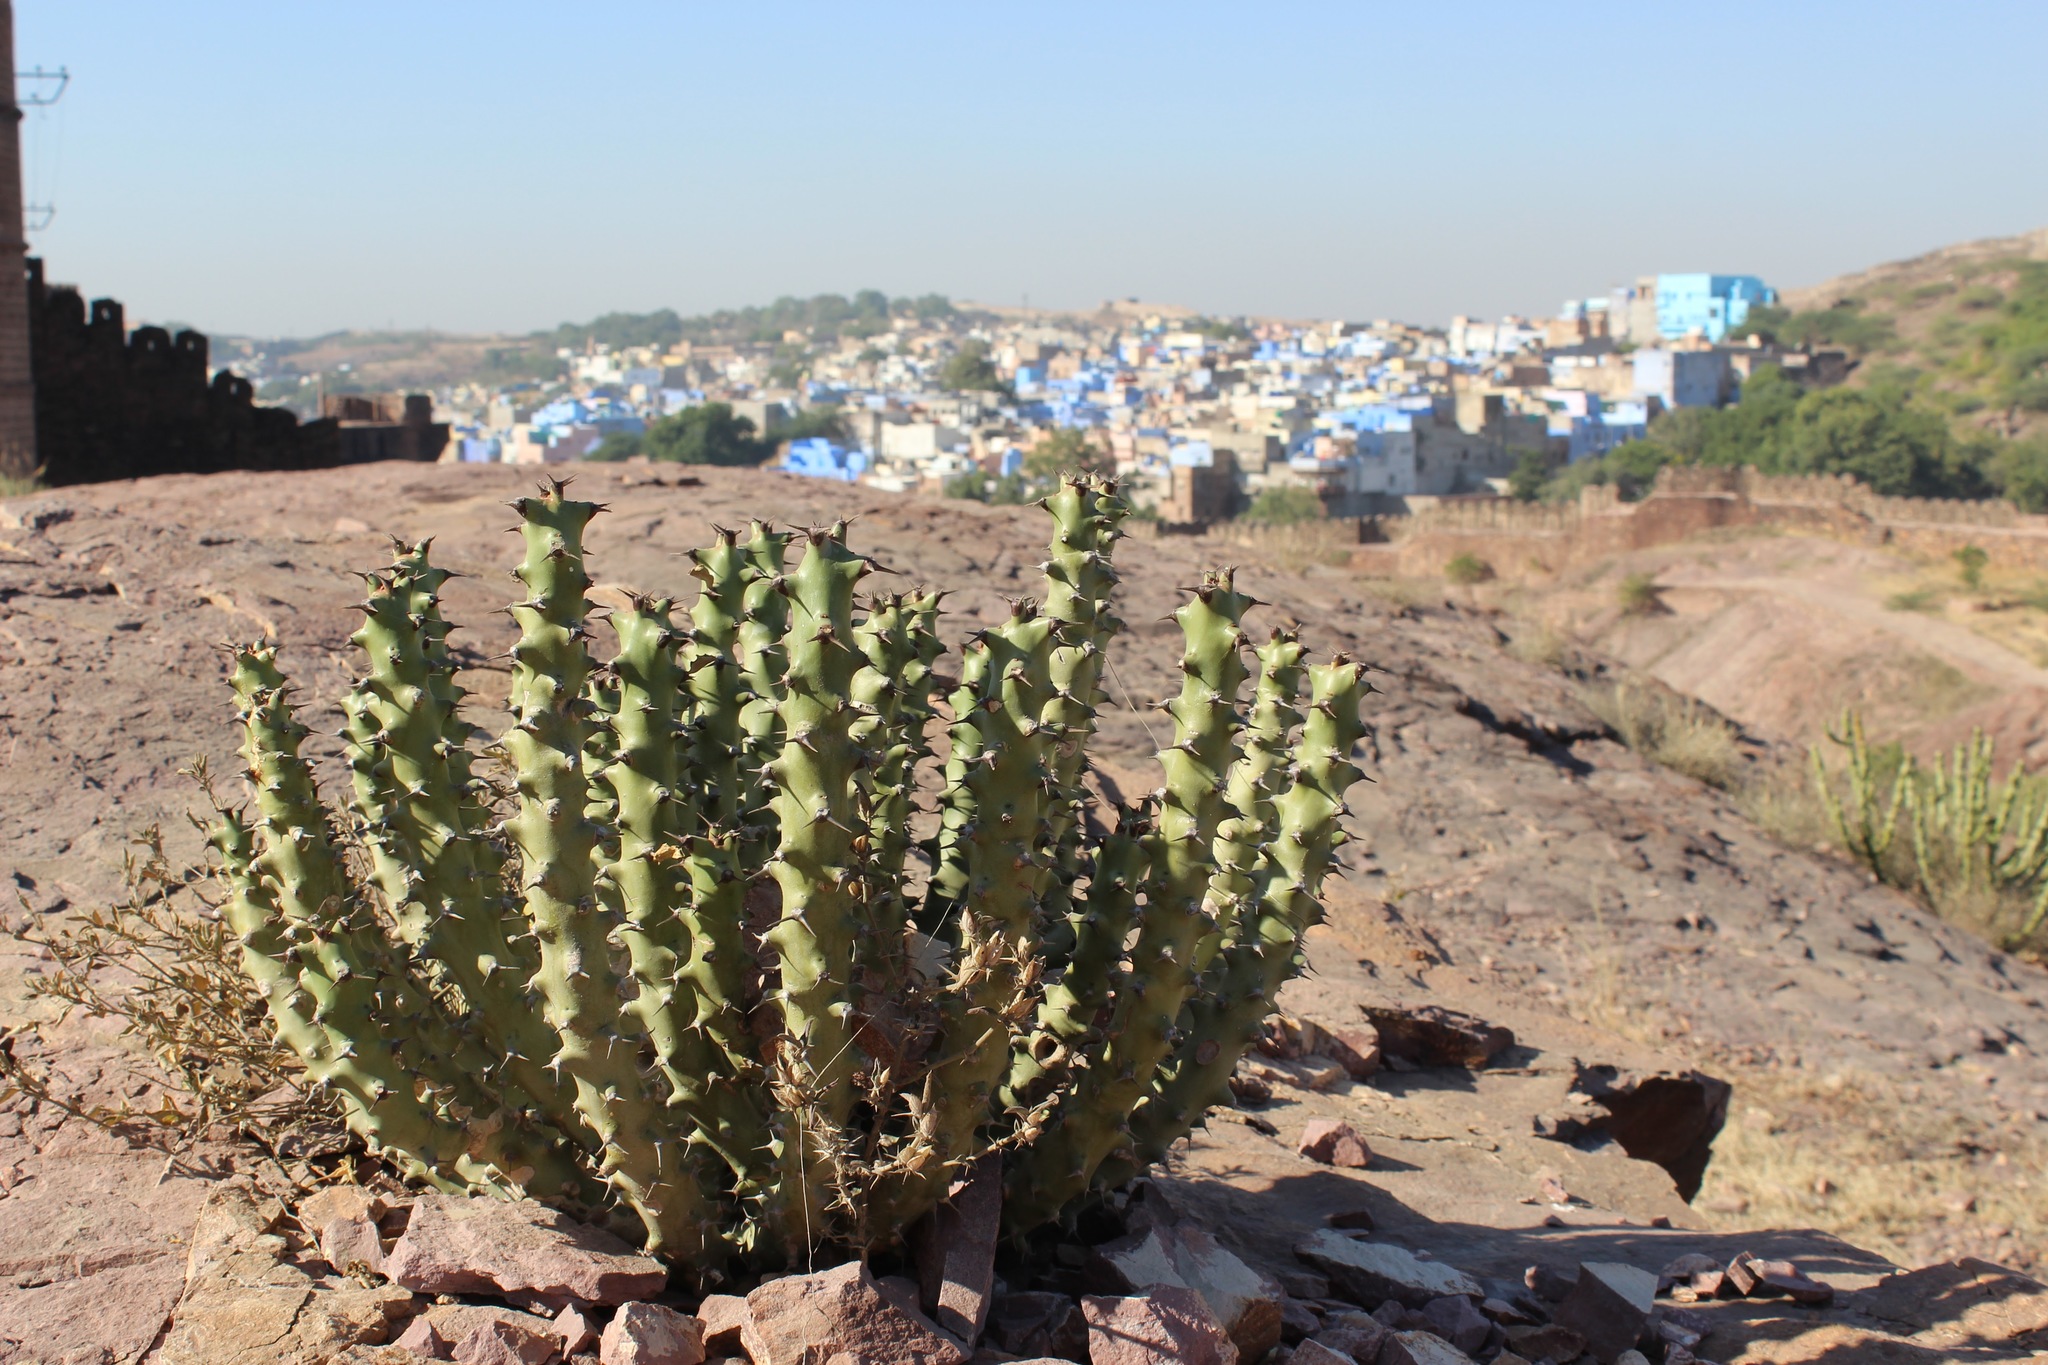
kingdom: Plantae
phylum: Tracheophyta
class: Magnoliopsida
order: Malpighiales
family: Euphorbiaceae
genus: Euphorbia
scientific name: Euphorbia caducifolia
